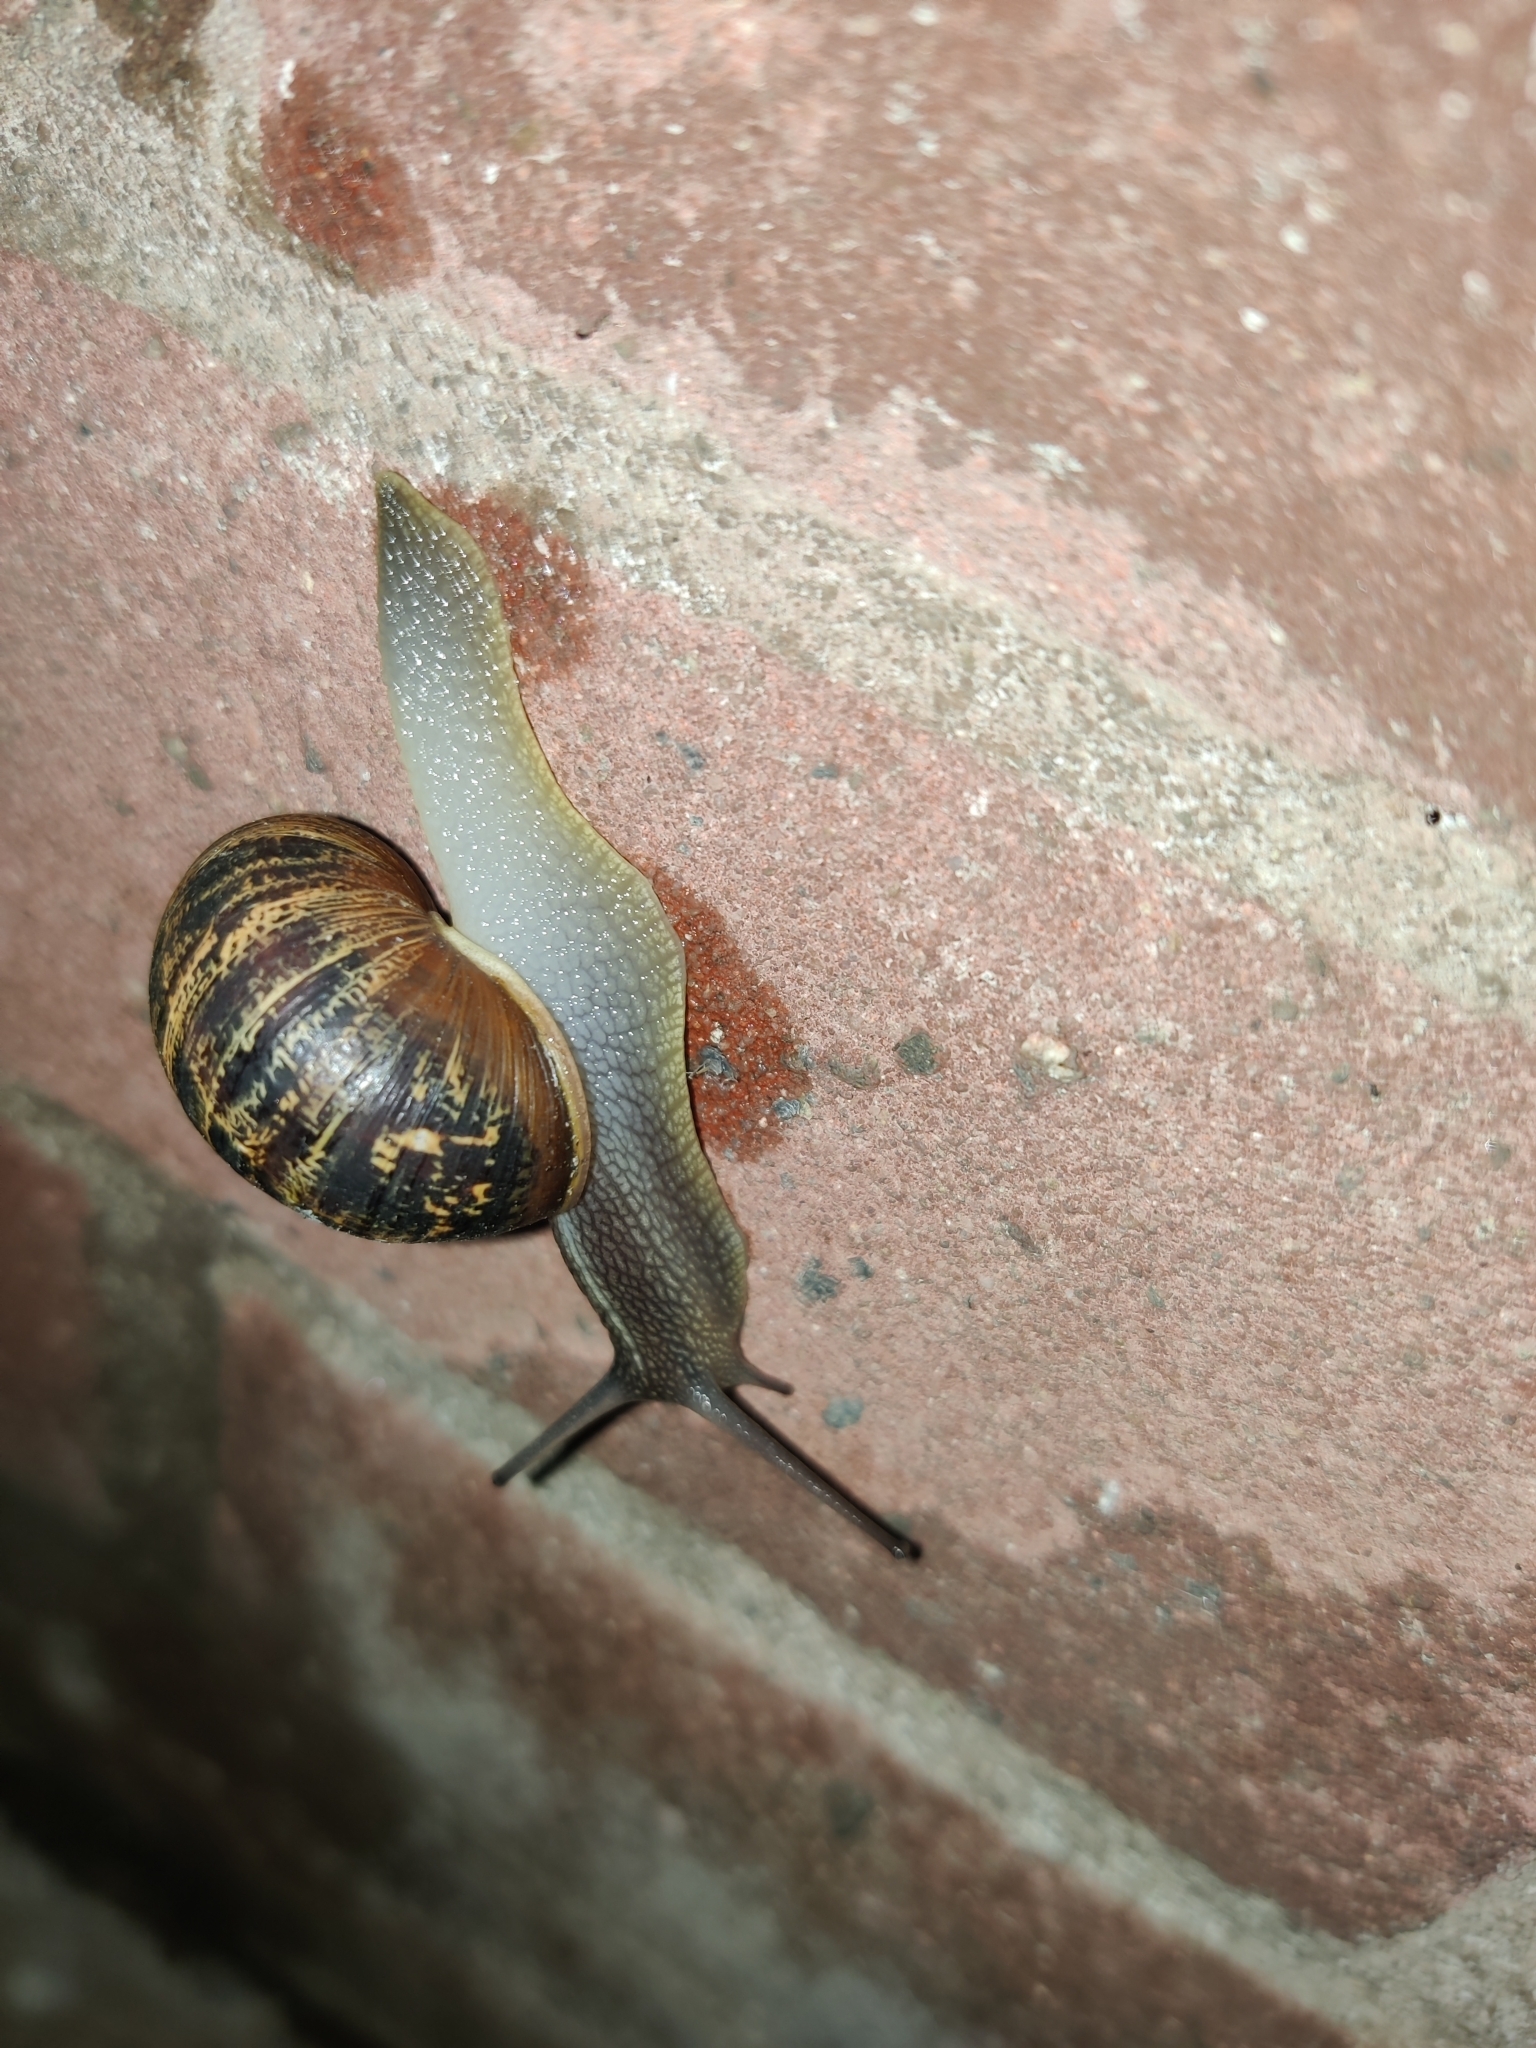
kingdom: Animalia
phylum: Mollusca
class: Gastropoda
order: Stylommatophora
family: Helicidae
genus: Cornu
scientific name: Cornu aspersum
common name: Brown garden snail
